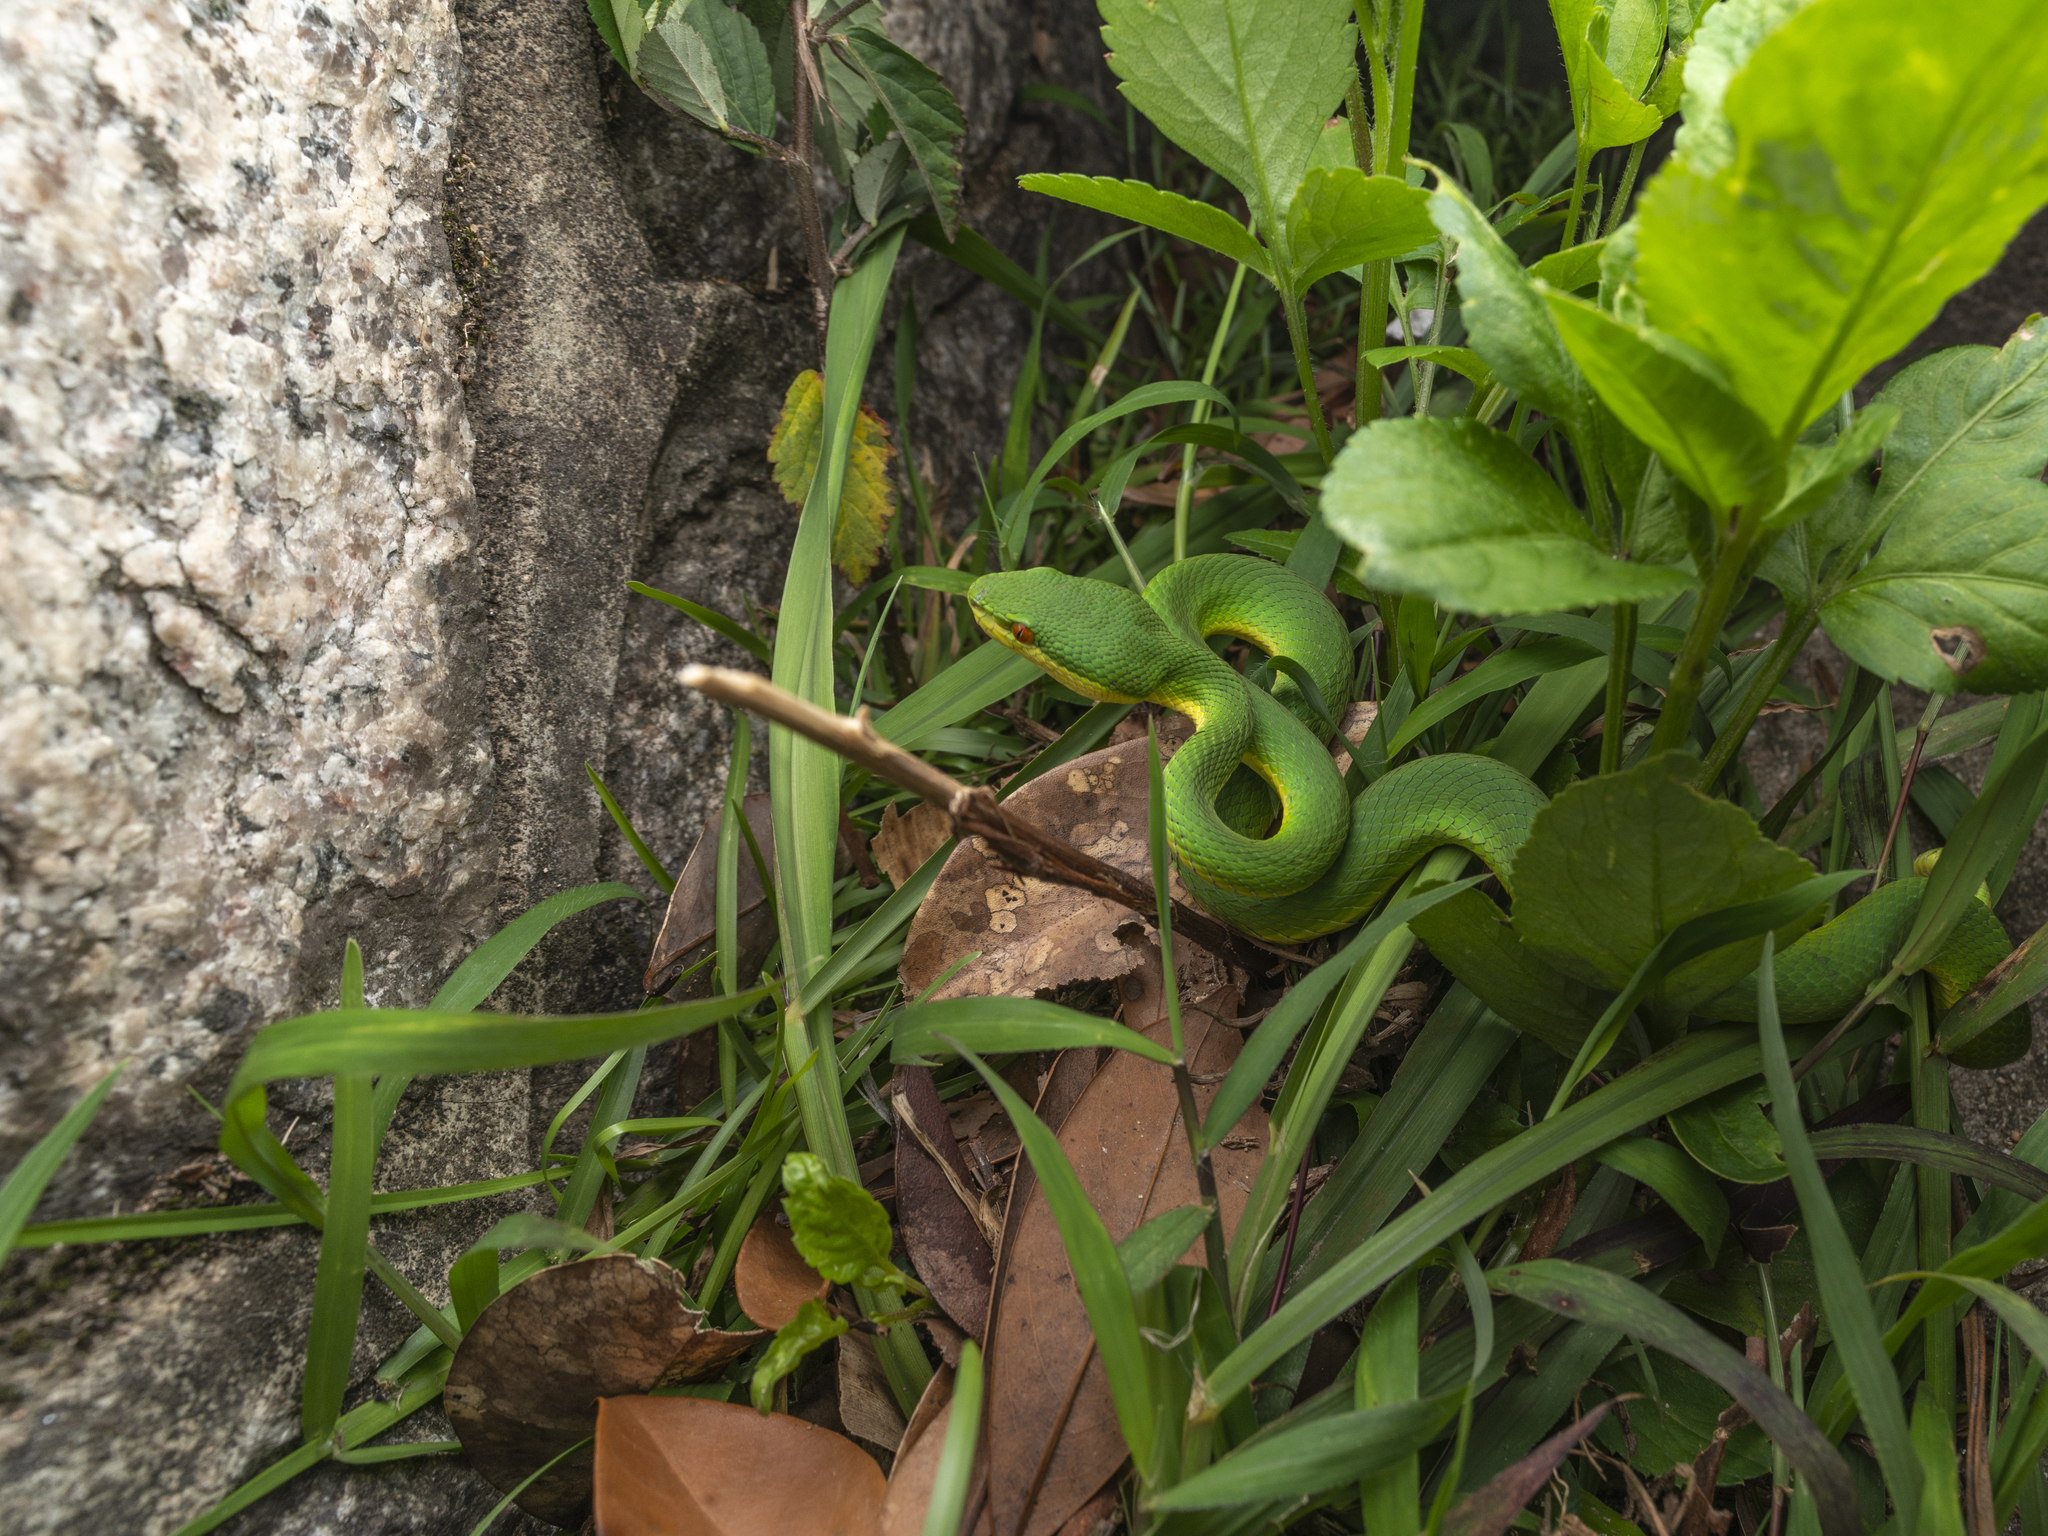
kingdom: Animalia
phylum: Chordata
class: Squamata
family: Viperidae
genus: Trimeresurus
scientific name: Trimeresurus albolabris
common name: White-lipped pitviper
